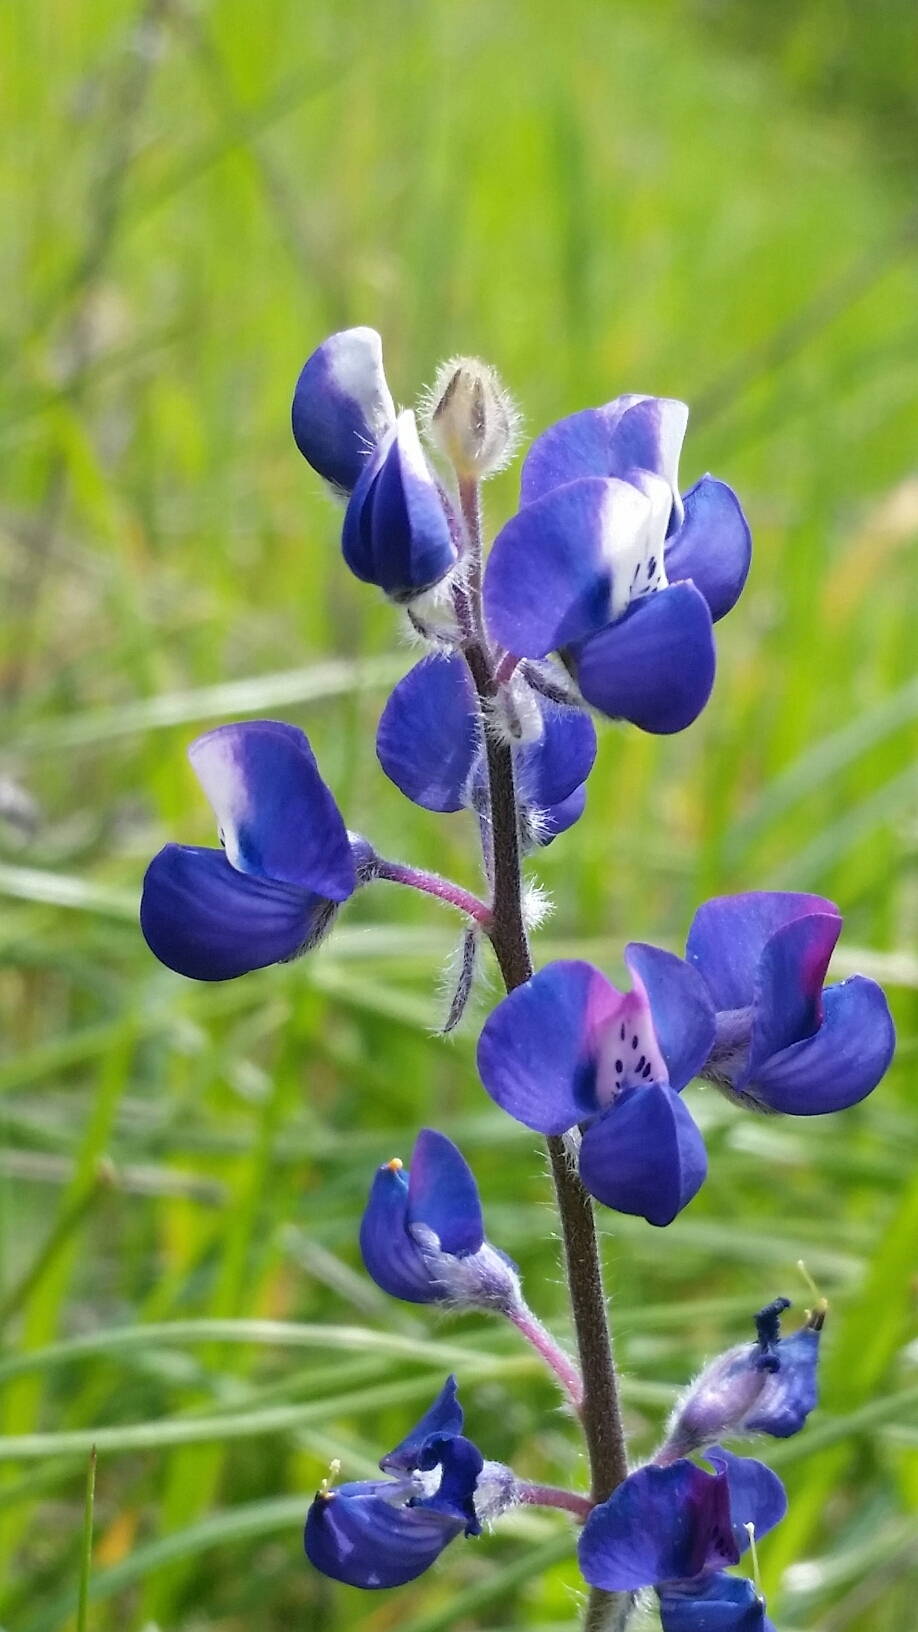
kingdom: Plantae
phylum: Tracheophyta
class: Magnoliopsida
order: Fabales
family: Fabaceae
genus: Lupinus
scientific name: Lupinus nanus
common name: Orean blue lupin
